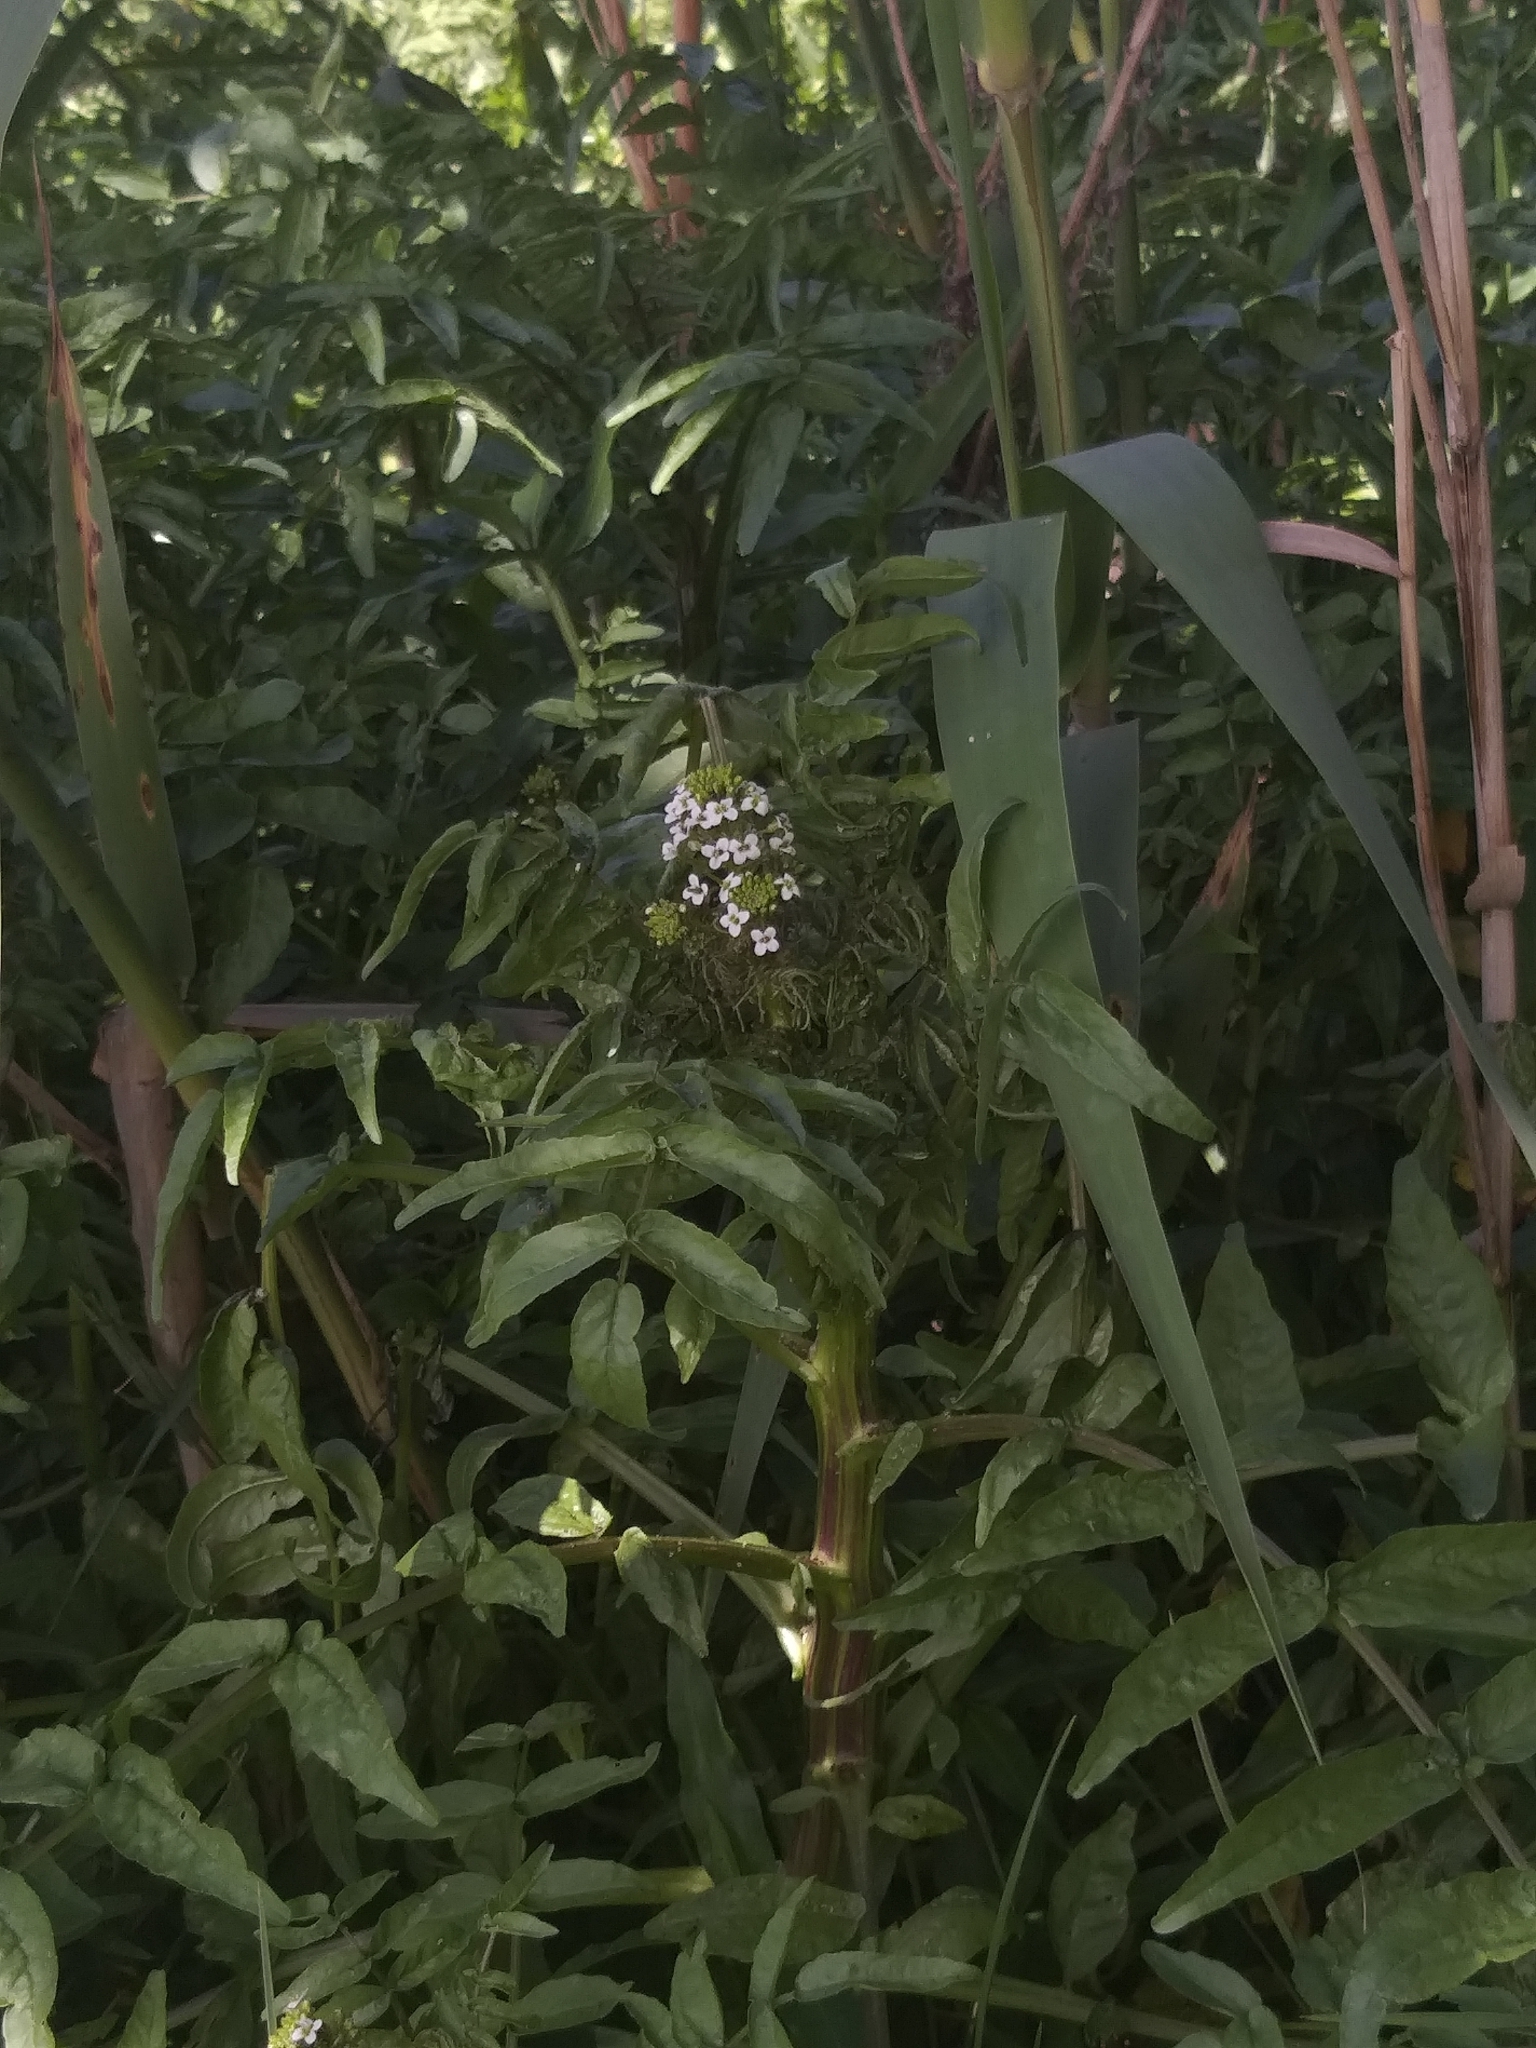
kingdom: Plantae
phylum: Tracheophyta
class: Magnoliopsida
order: Brassicales
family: Brassicaceae
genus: Nasturtium
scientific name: Nasturtium officinale
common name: Watercress
